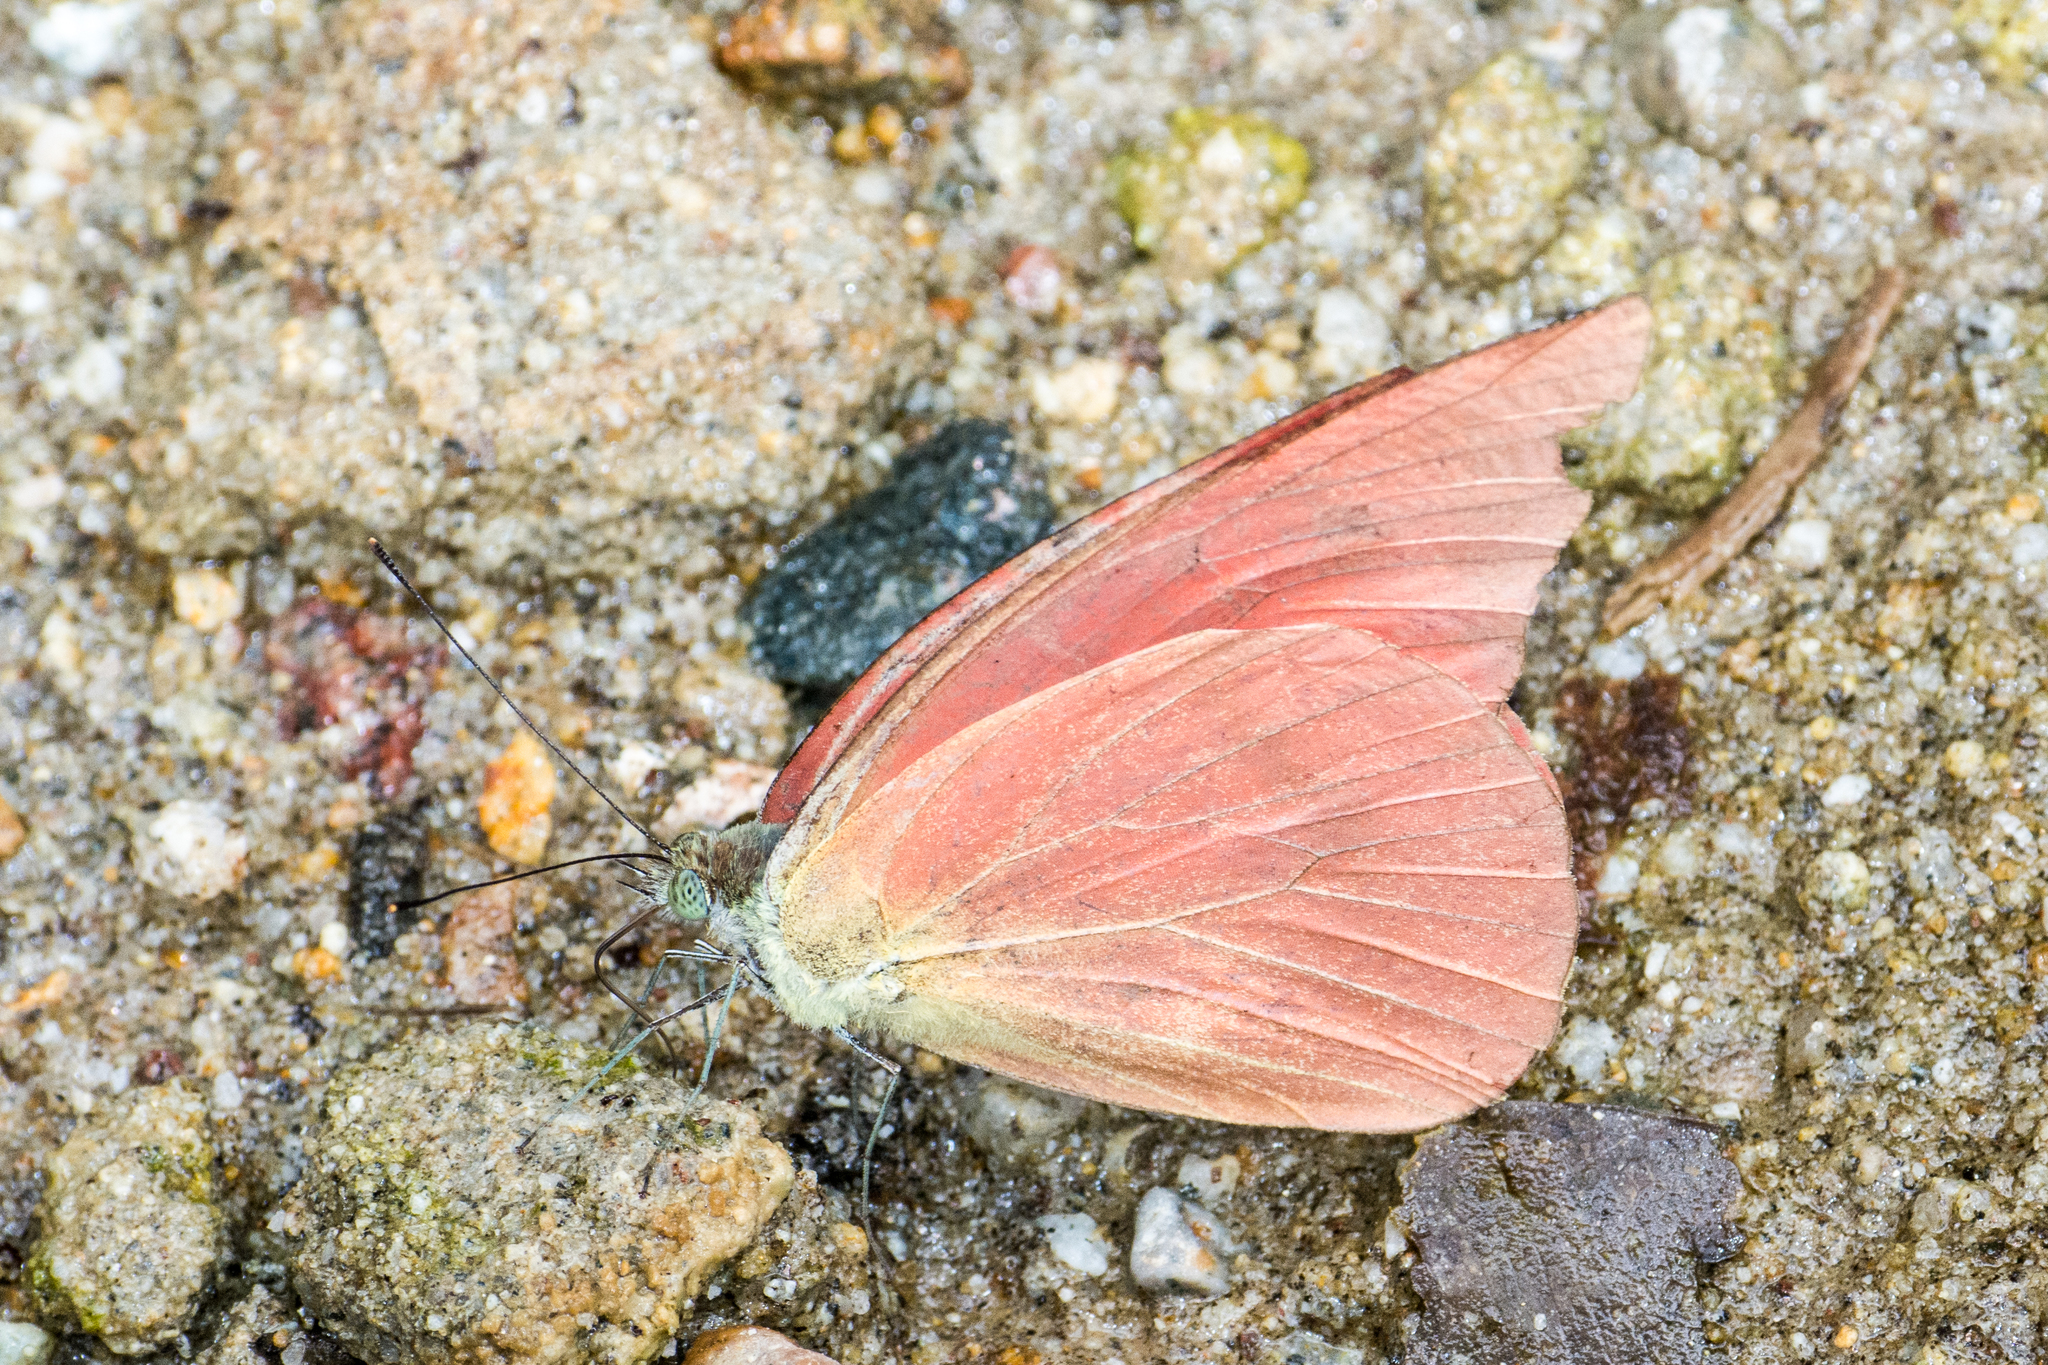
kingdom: Animalia
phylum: Arthropoda
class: Insecta
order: Lepidoptera
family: Pieridae
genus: Appias
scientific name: Appias zarinda
